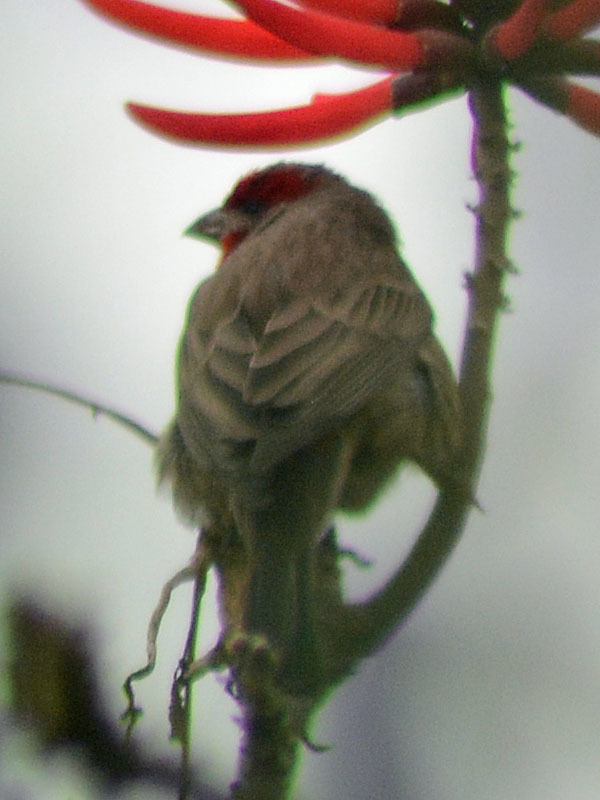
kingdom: Animalia
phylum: Chordata
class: Aves
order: Passeriformes
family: Fringillidae
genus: Haemorhous
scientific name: Haemorhous mexicanus
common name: House finch
